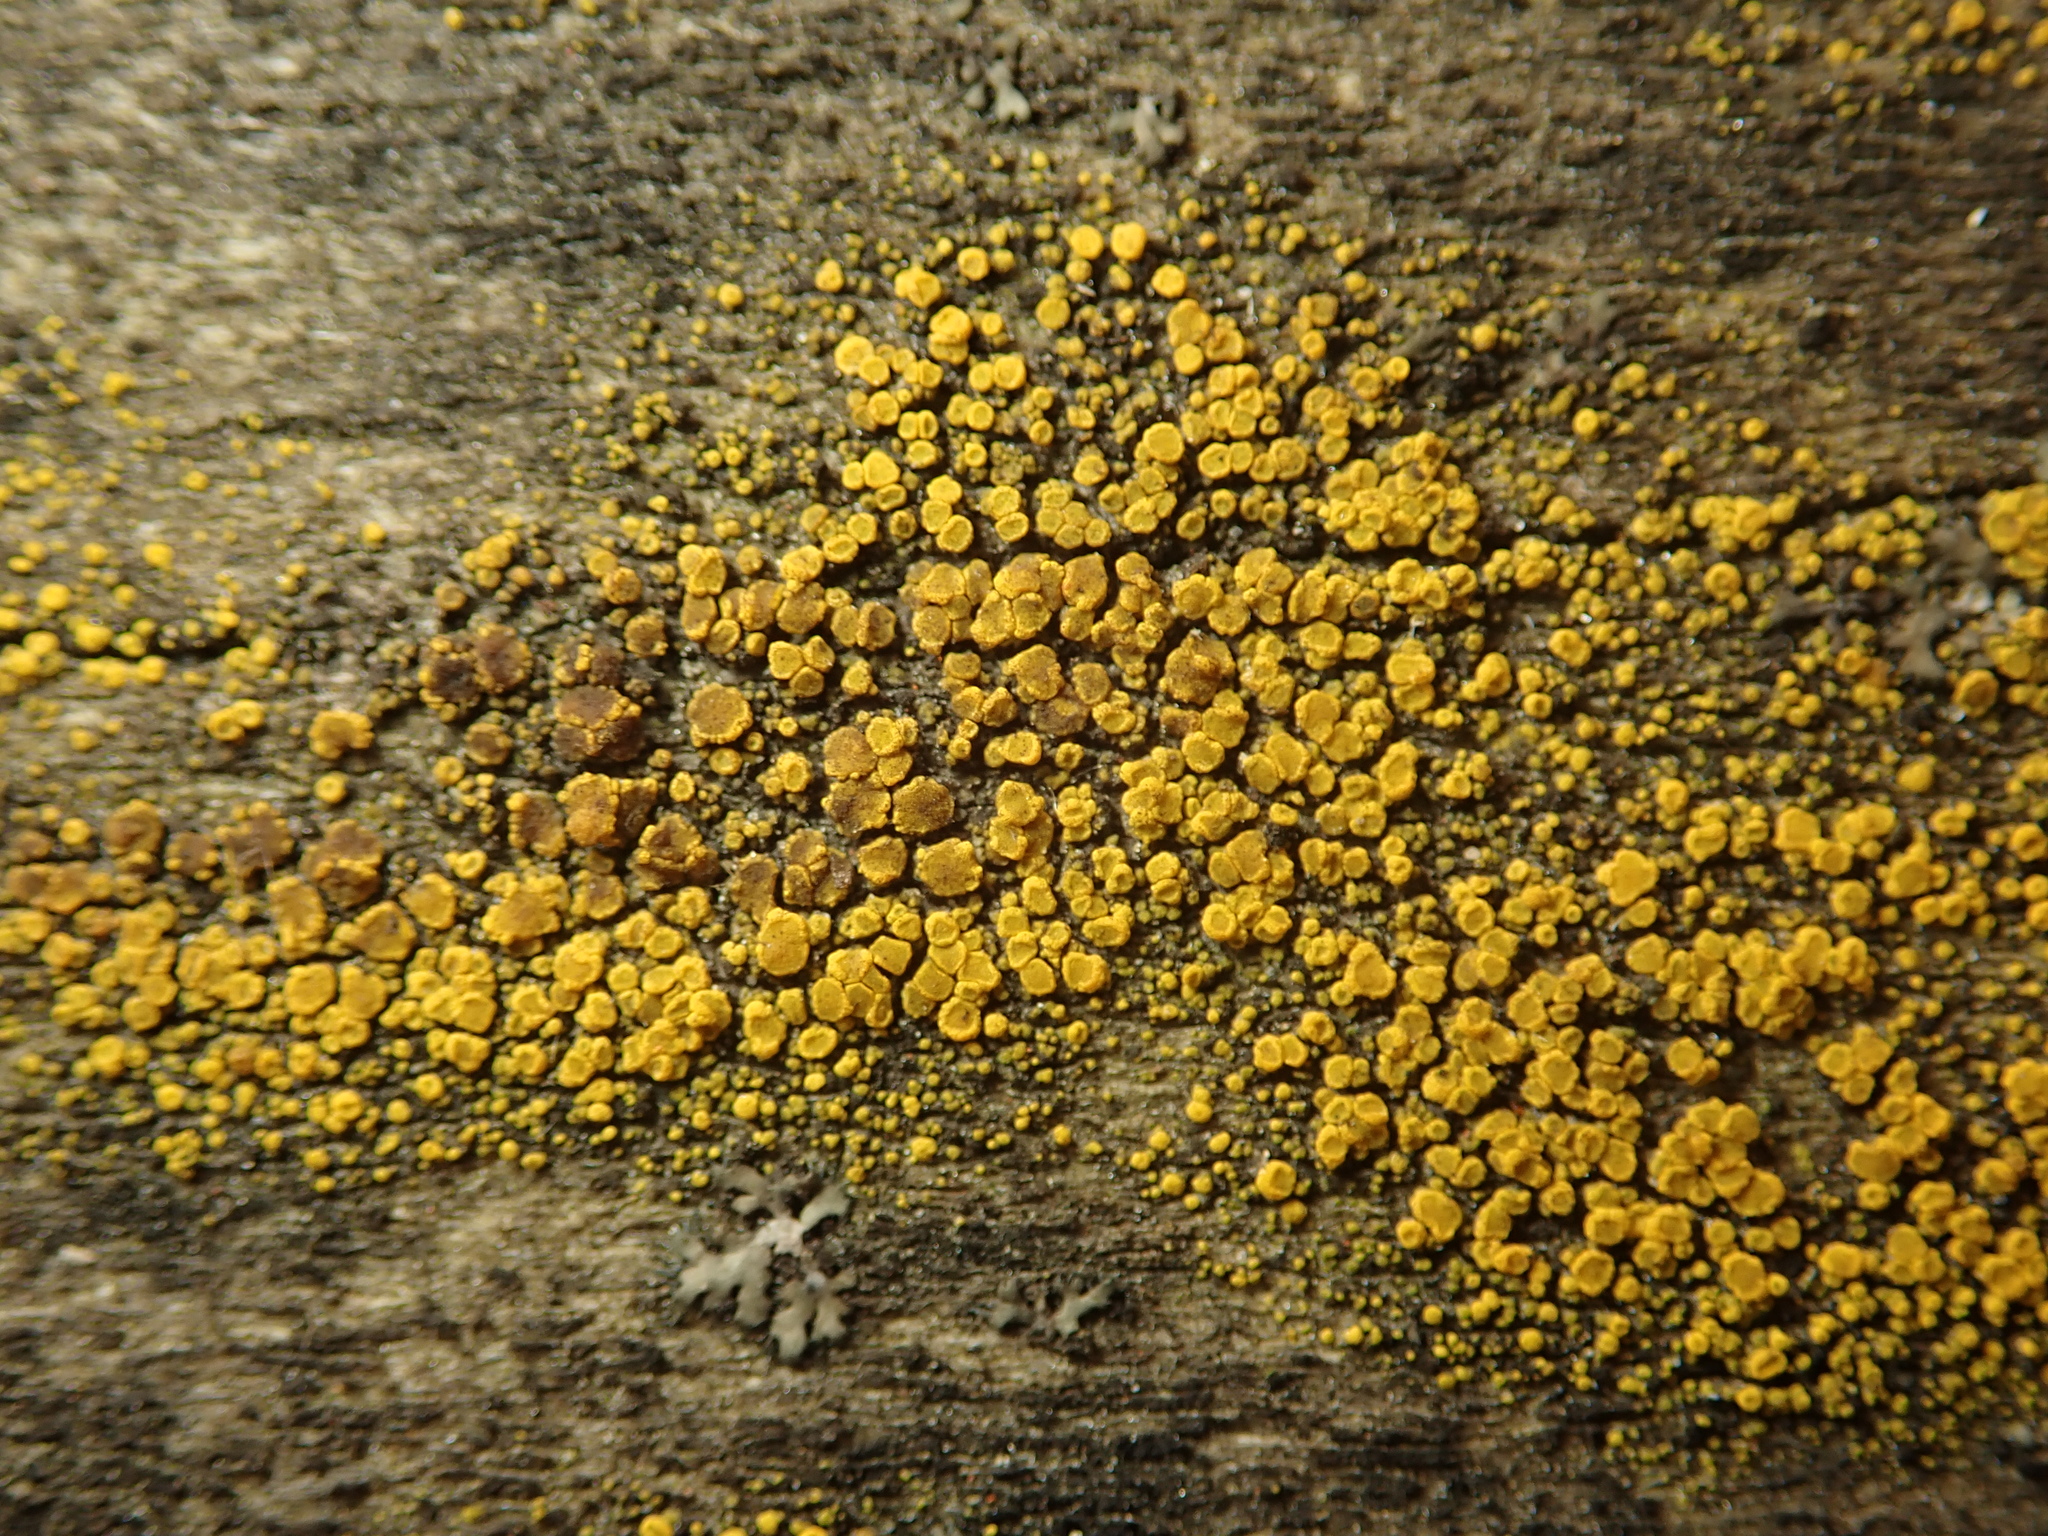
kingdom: Fungi
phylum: Ascomycota
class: Candelariomycetes
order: Candelariales
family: Candelariaceae
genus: Candelariella
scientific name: Candelariella vitellina
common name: Common goldspeck
